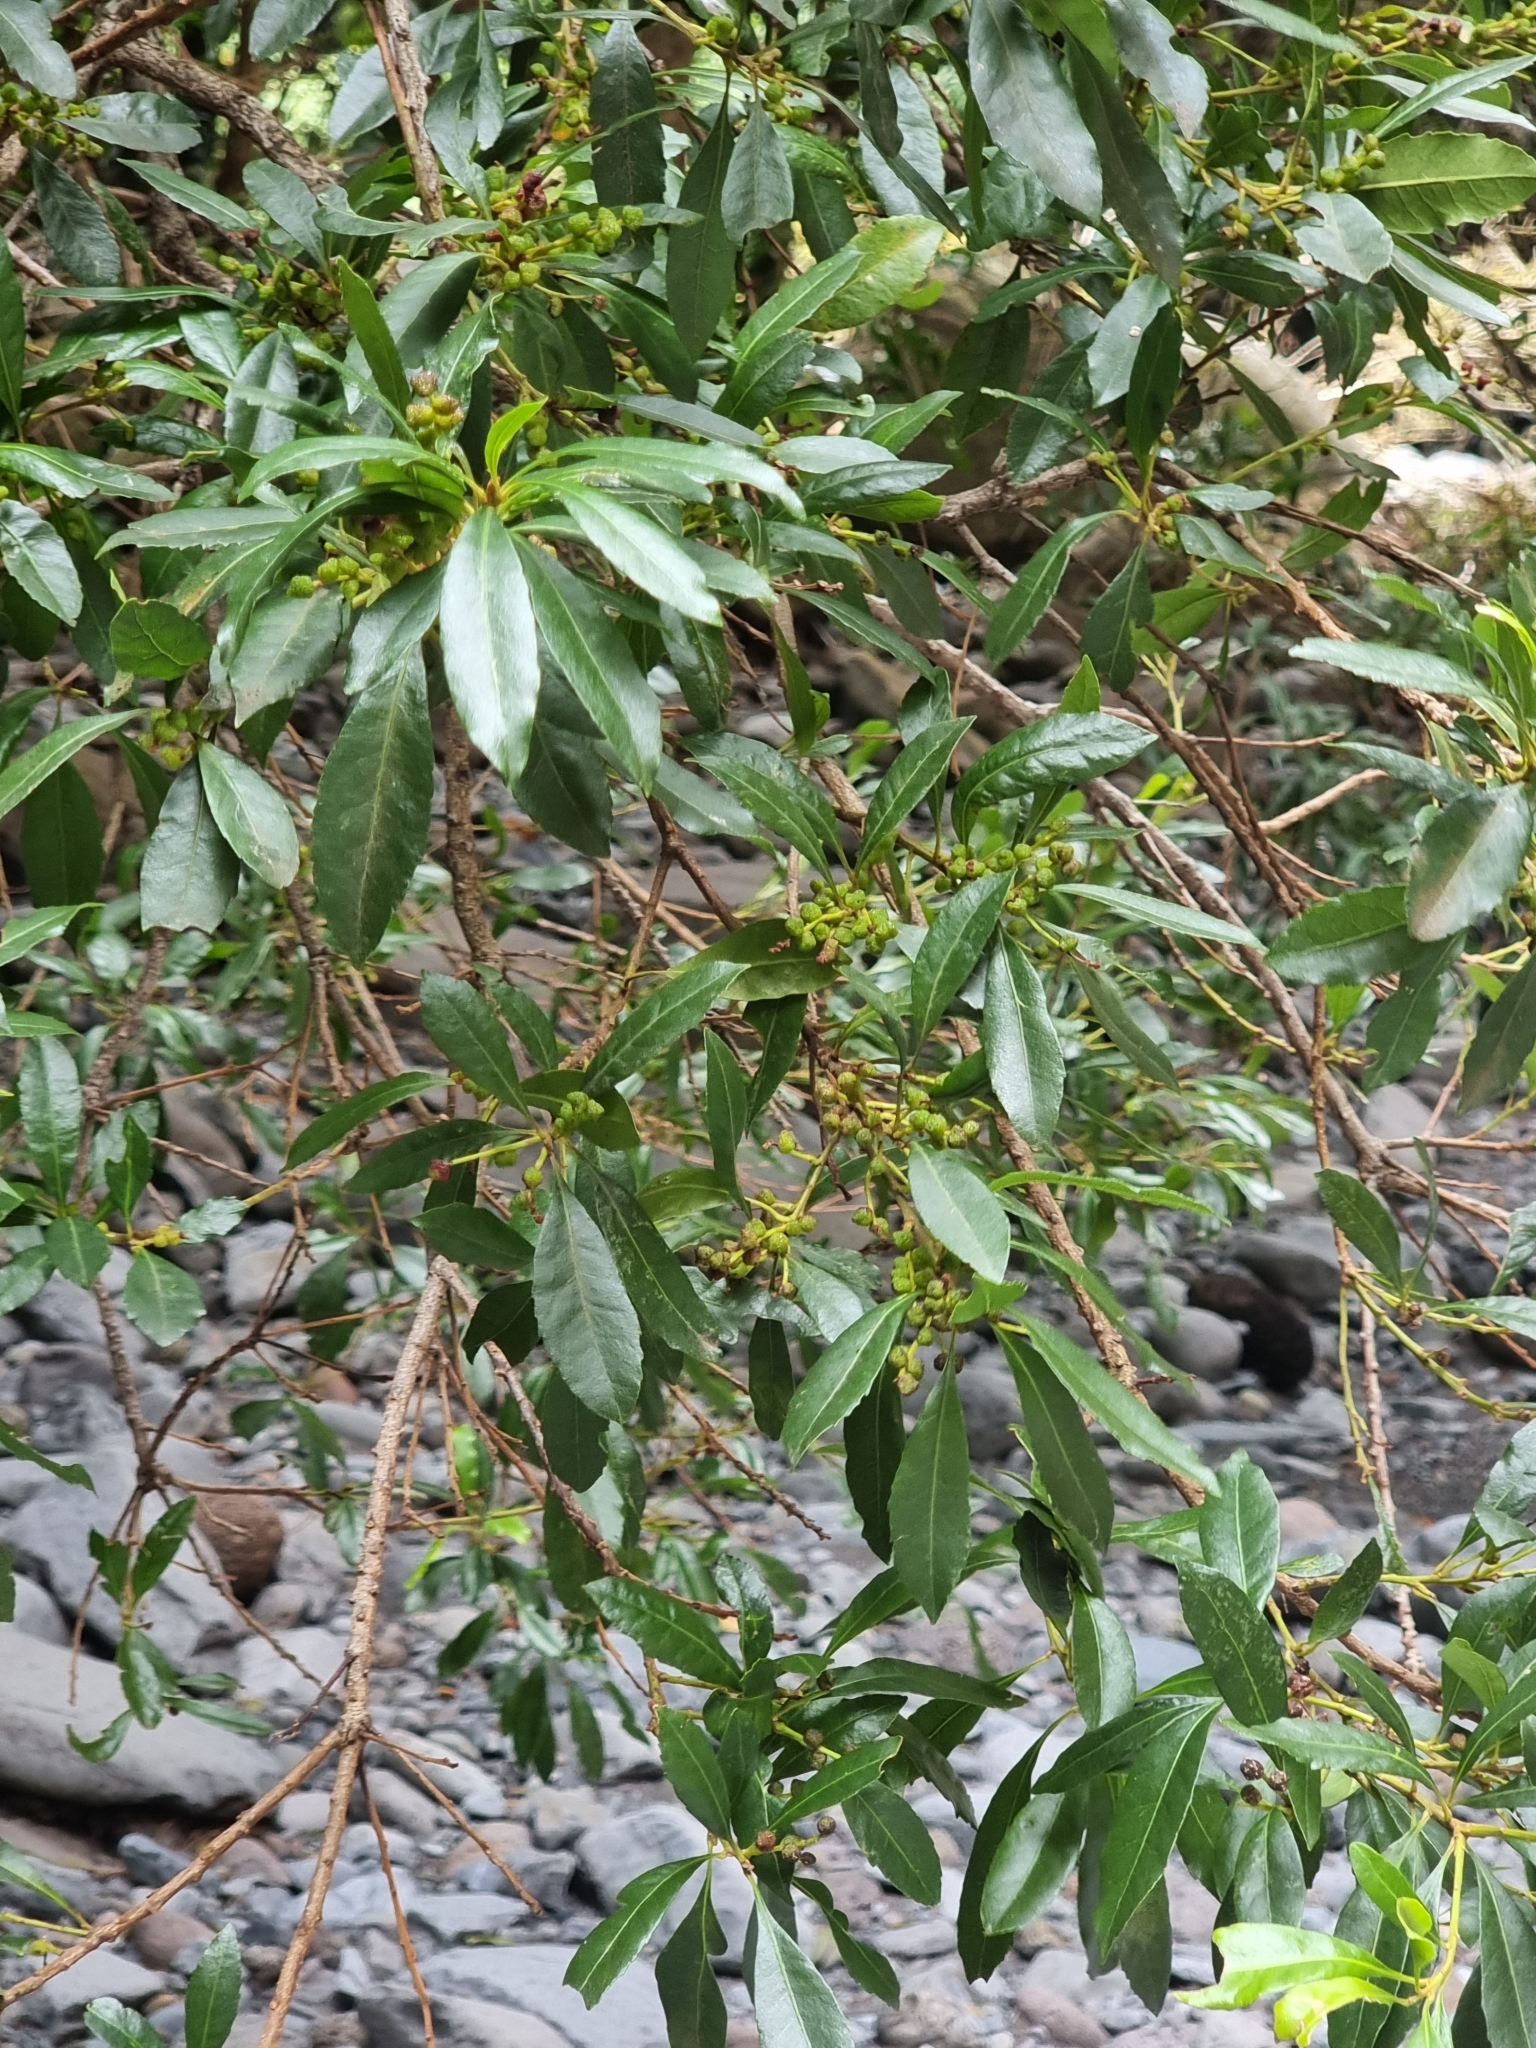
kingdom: Plantae
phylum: Tracheophyta
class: Magnoliopsida
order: Fagales
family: Myricaceae
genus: Morella
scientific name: Morella faya
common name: Firetree
